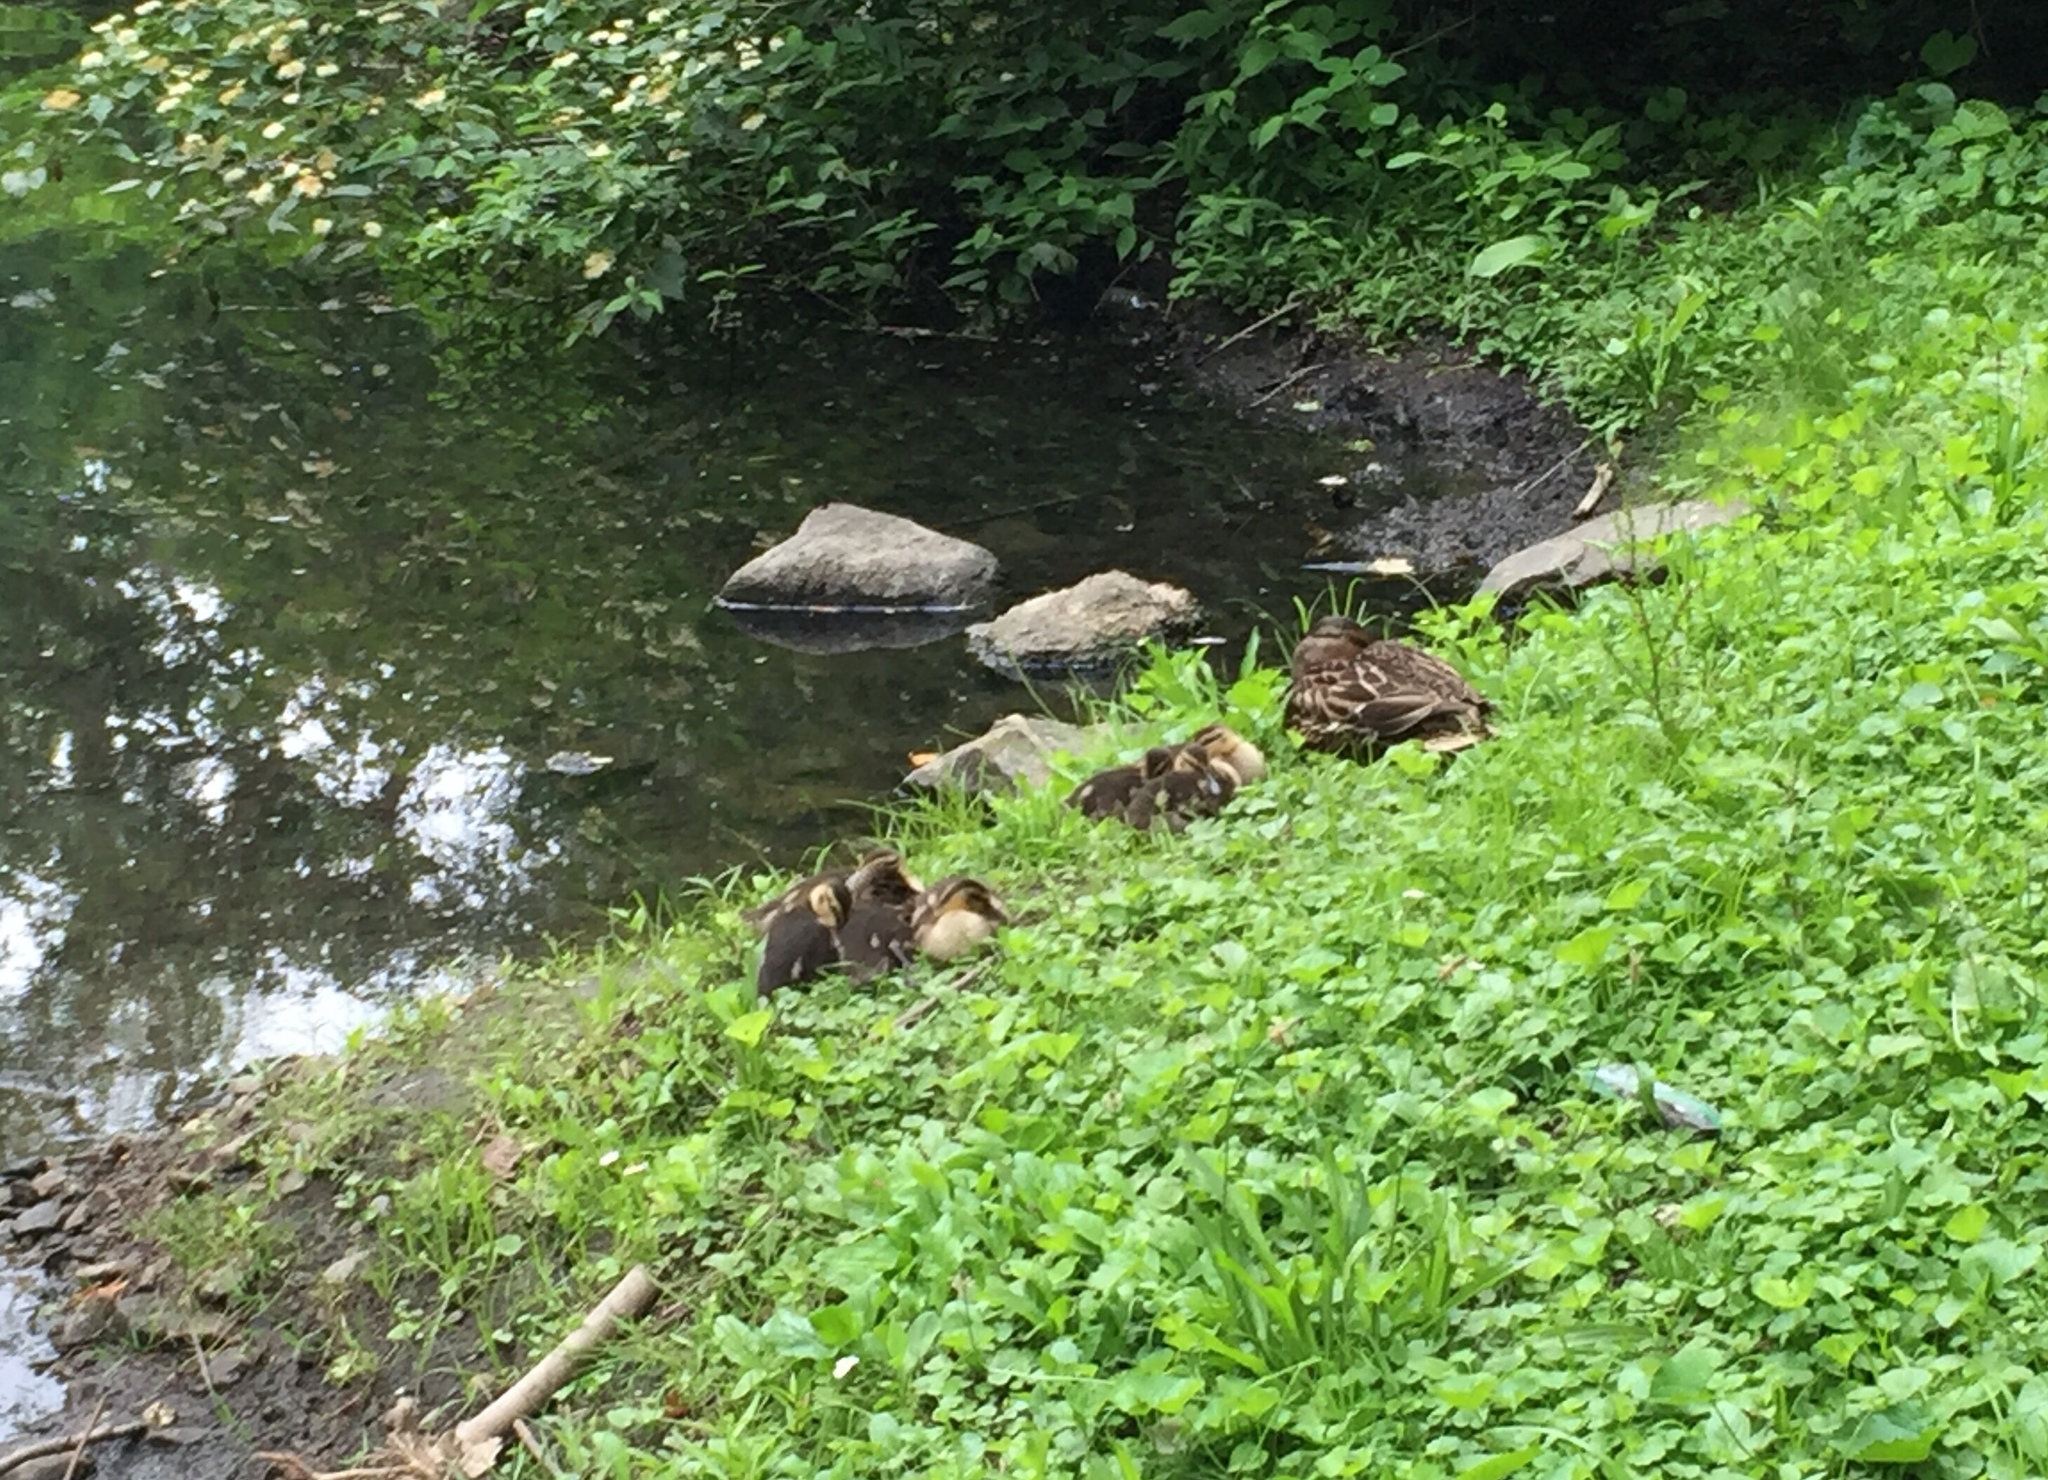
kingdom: Animalia
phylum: Chordata
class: Aves
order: Anseriformes
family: Anatidae
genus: Anas
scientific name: Anas platyrhynchos
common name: Mallard
